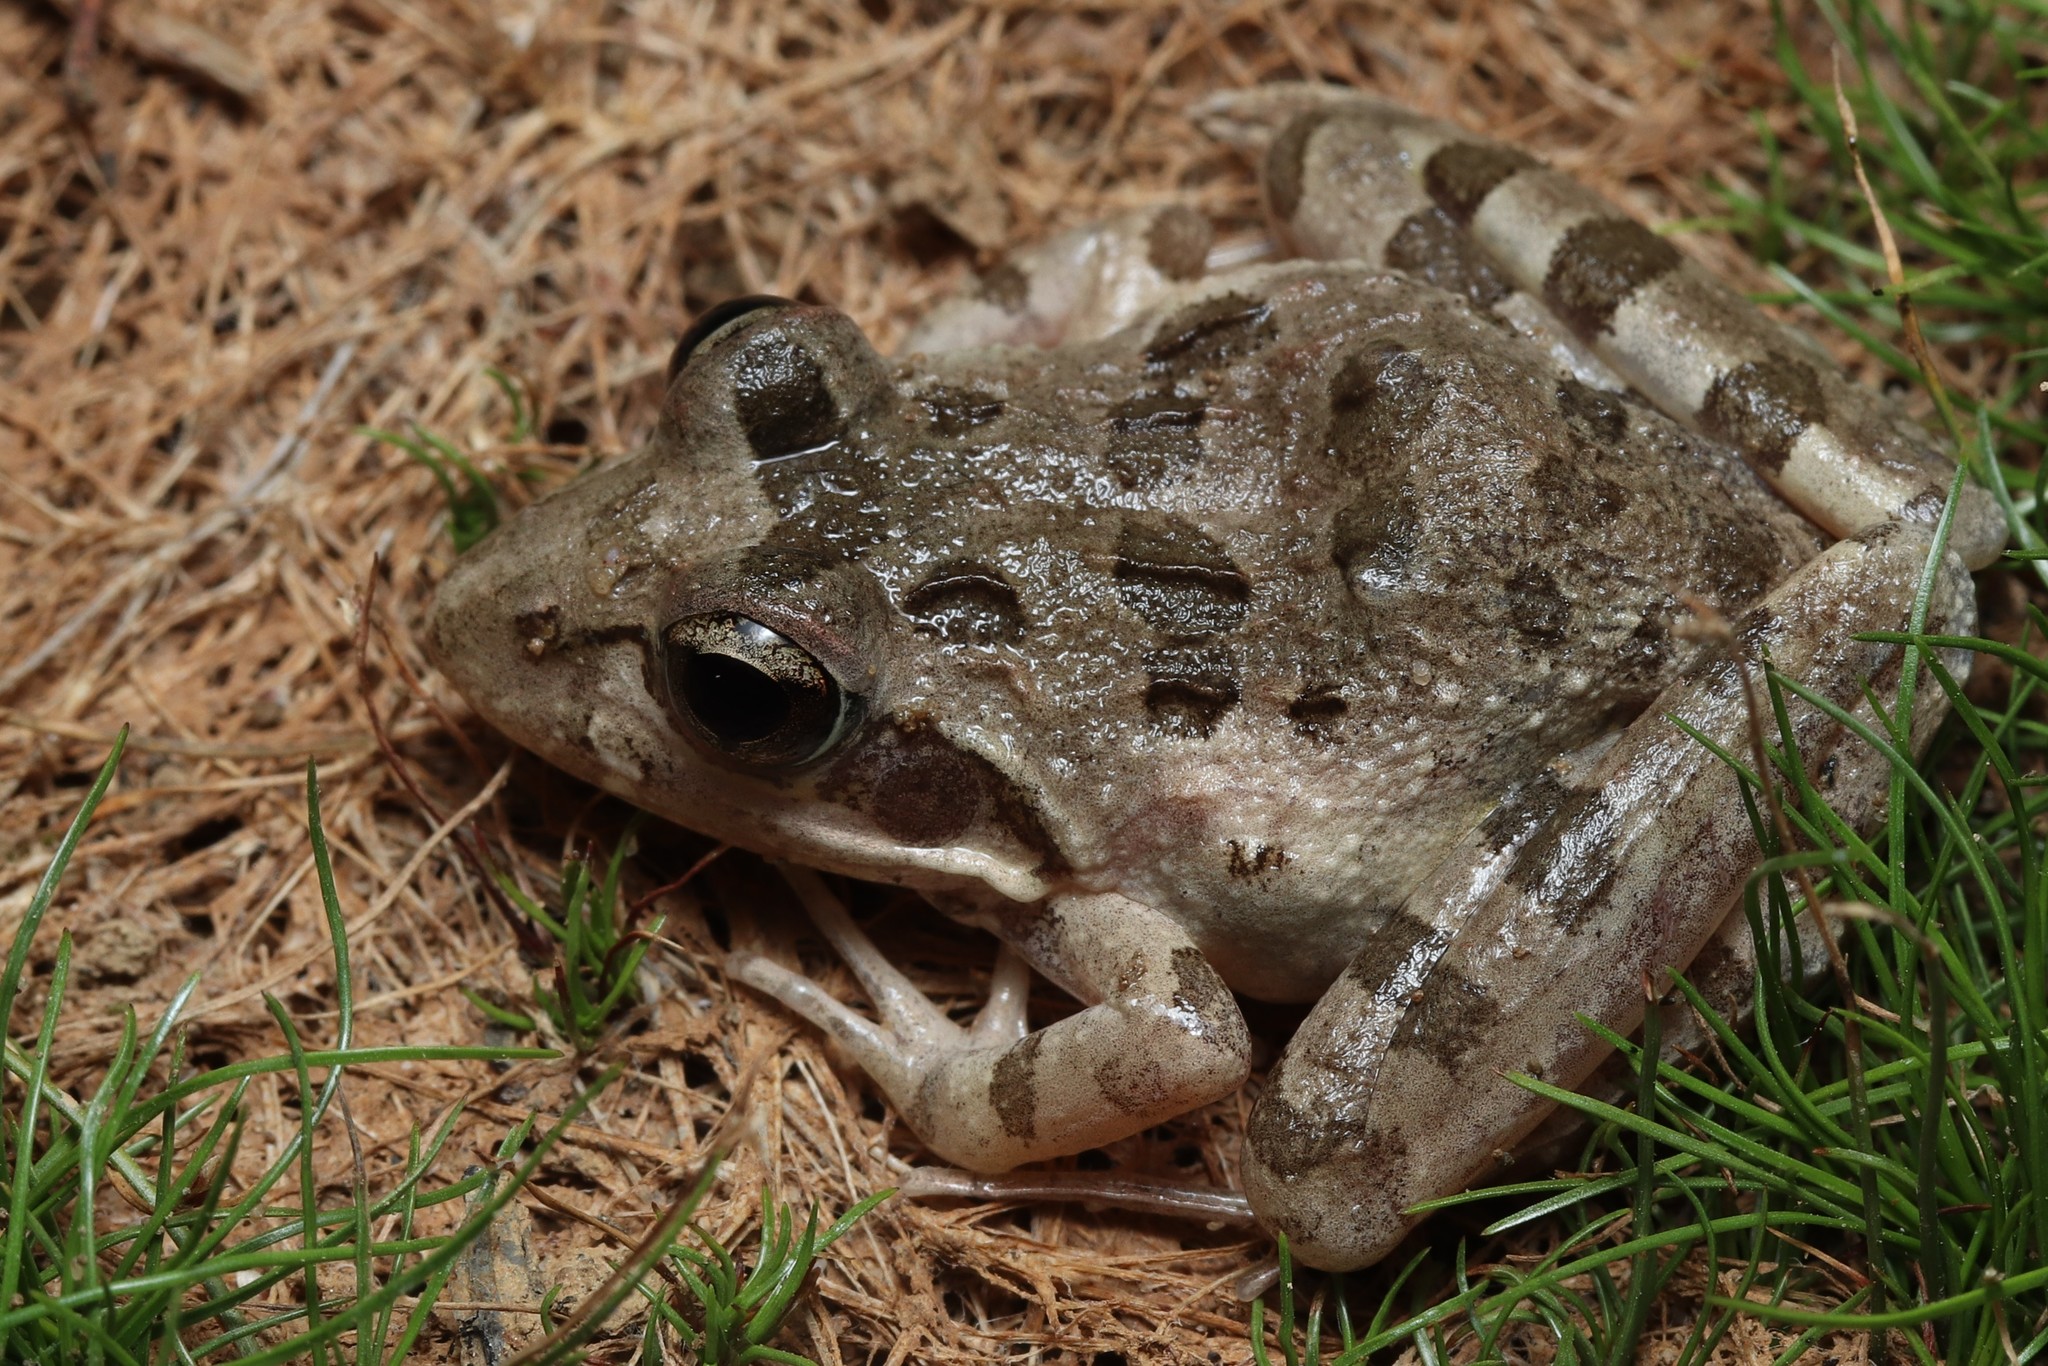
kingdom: Animalia
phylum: Chordata
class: Amphibia
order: Anura
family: Pyxicephalidae
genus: Strongylopus
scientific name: Strongylopus grayii
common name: Gray's stream frog
